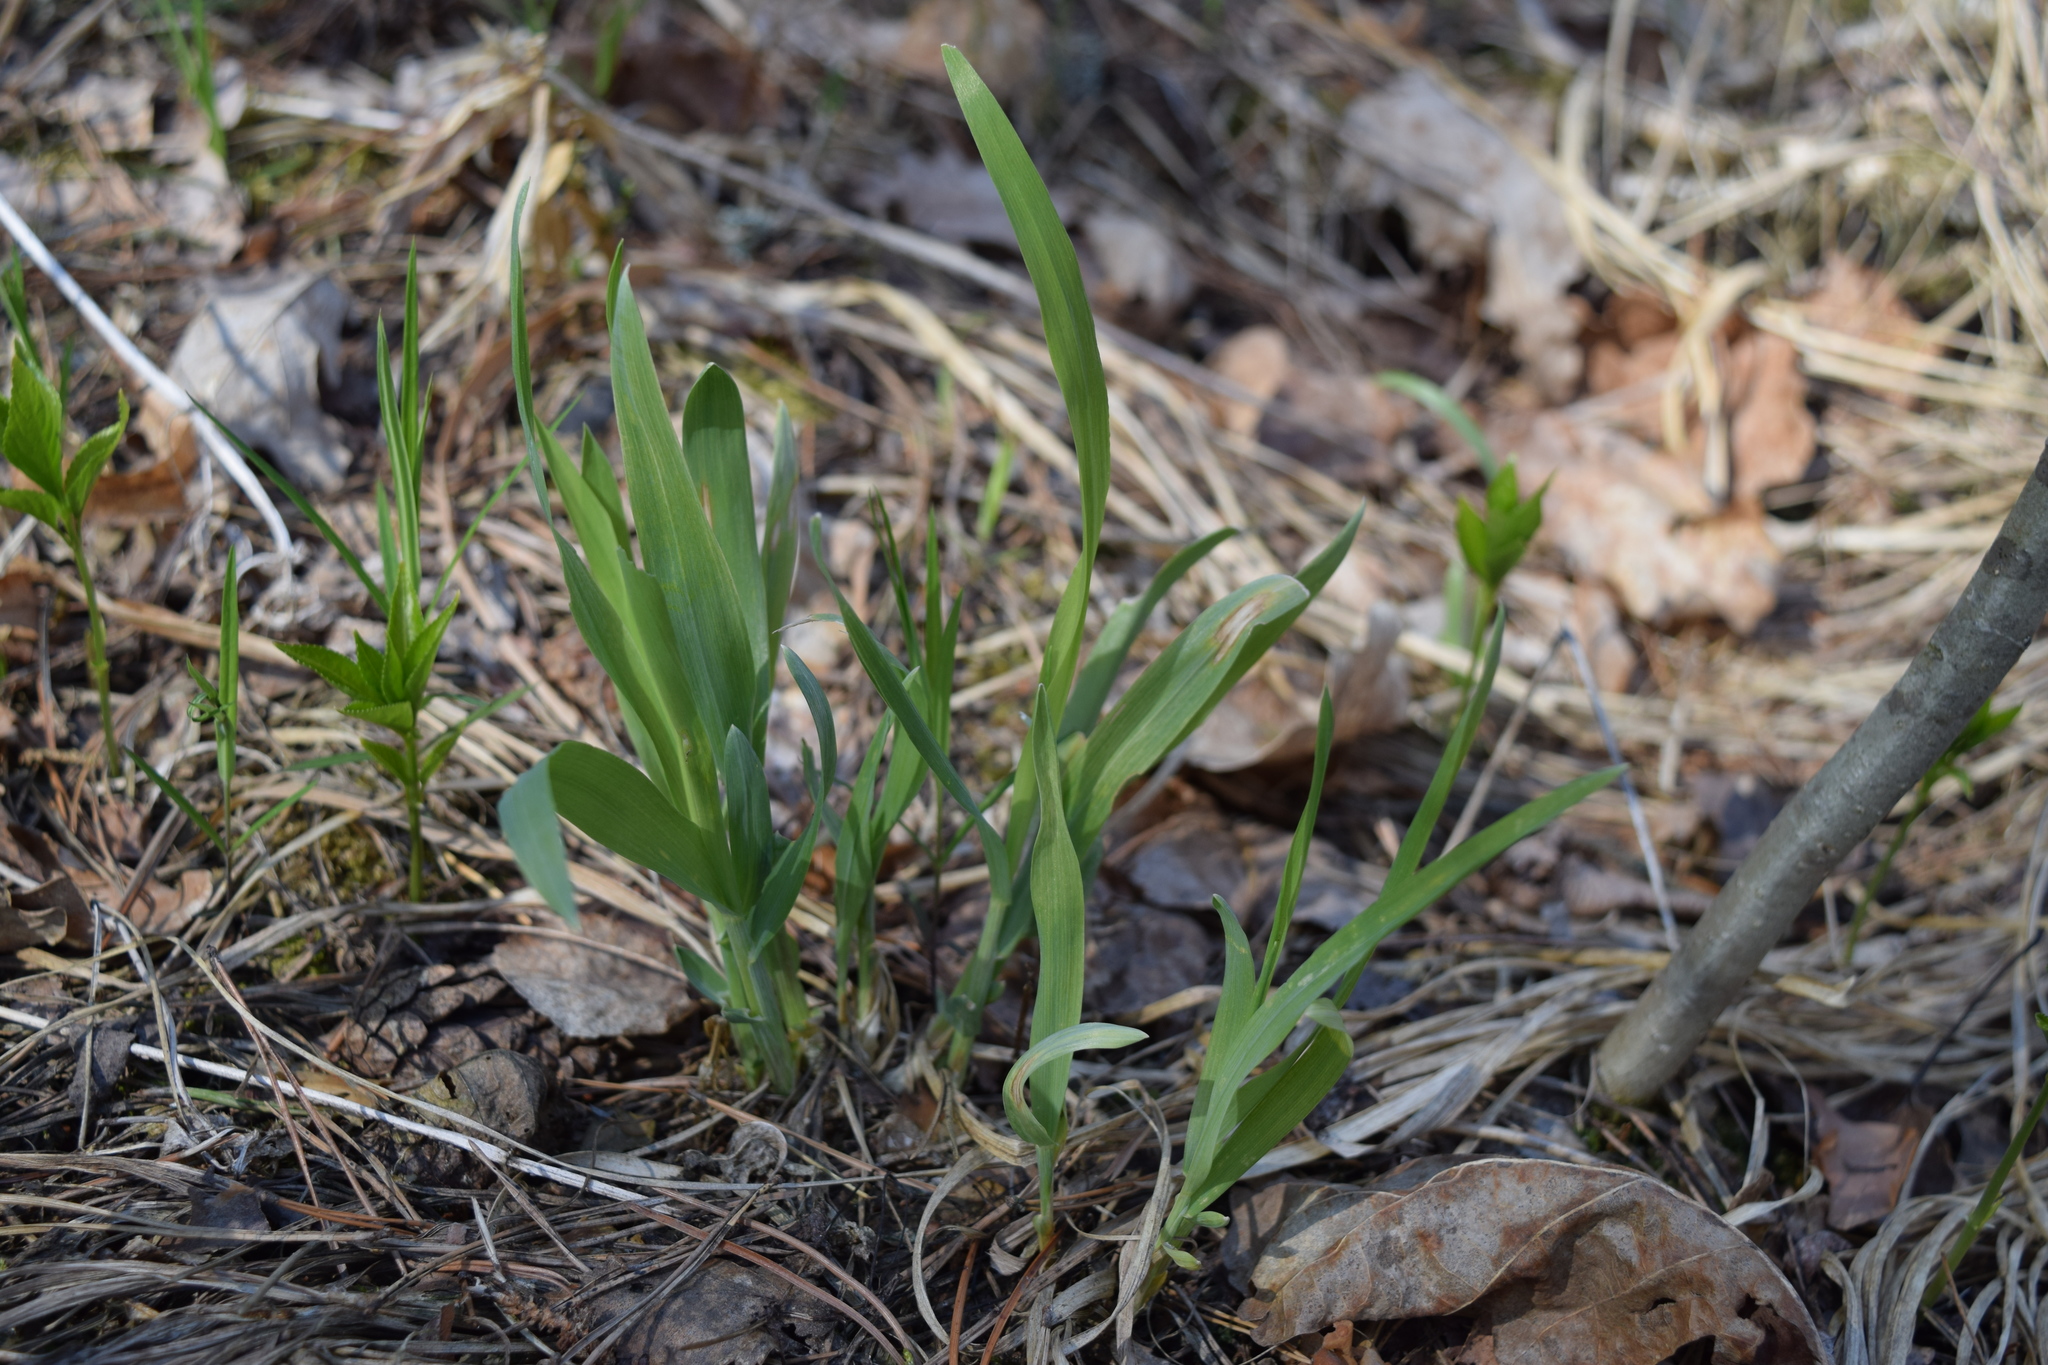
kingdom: Plantae
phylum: Tracheophyta
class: Liliopsida
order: Poales
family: Poaceae
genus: Milium
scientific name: Milium effusum
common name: Wood millet
